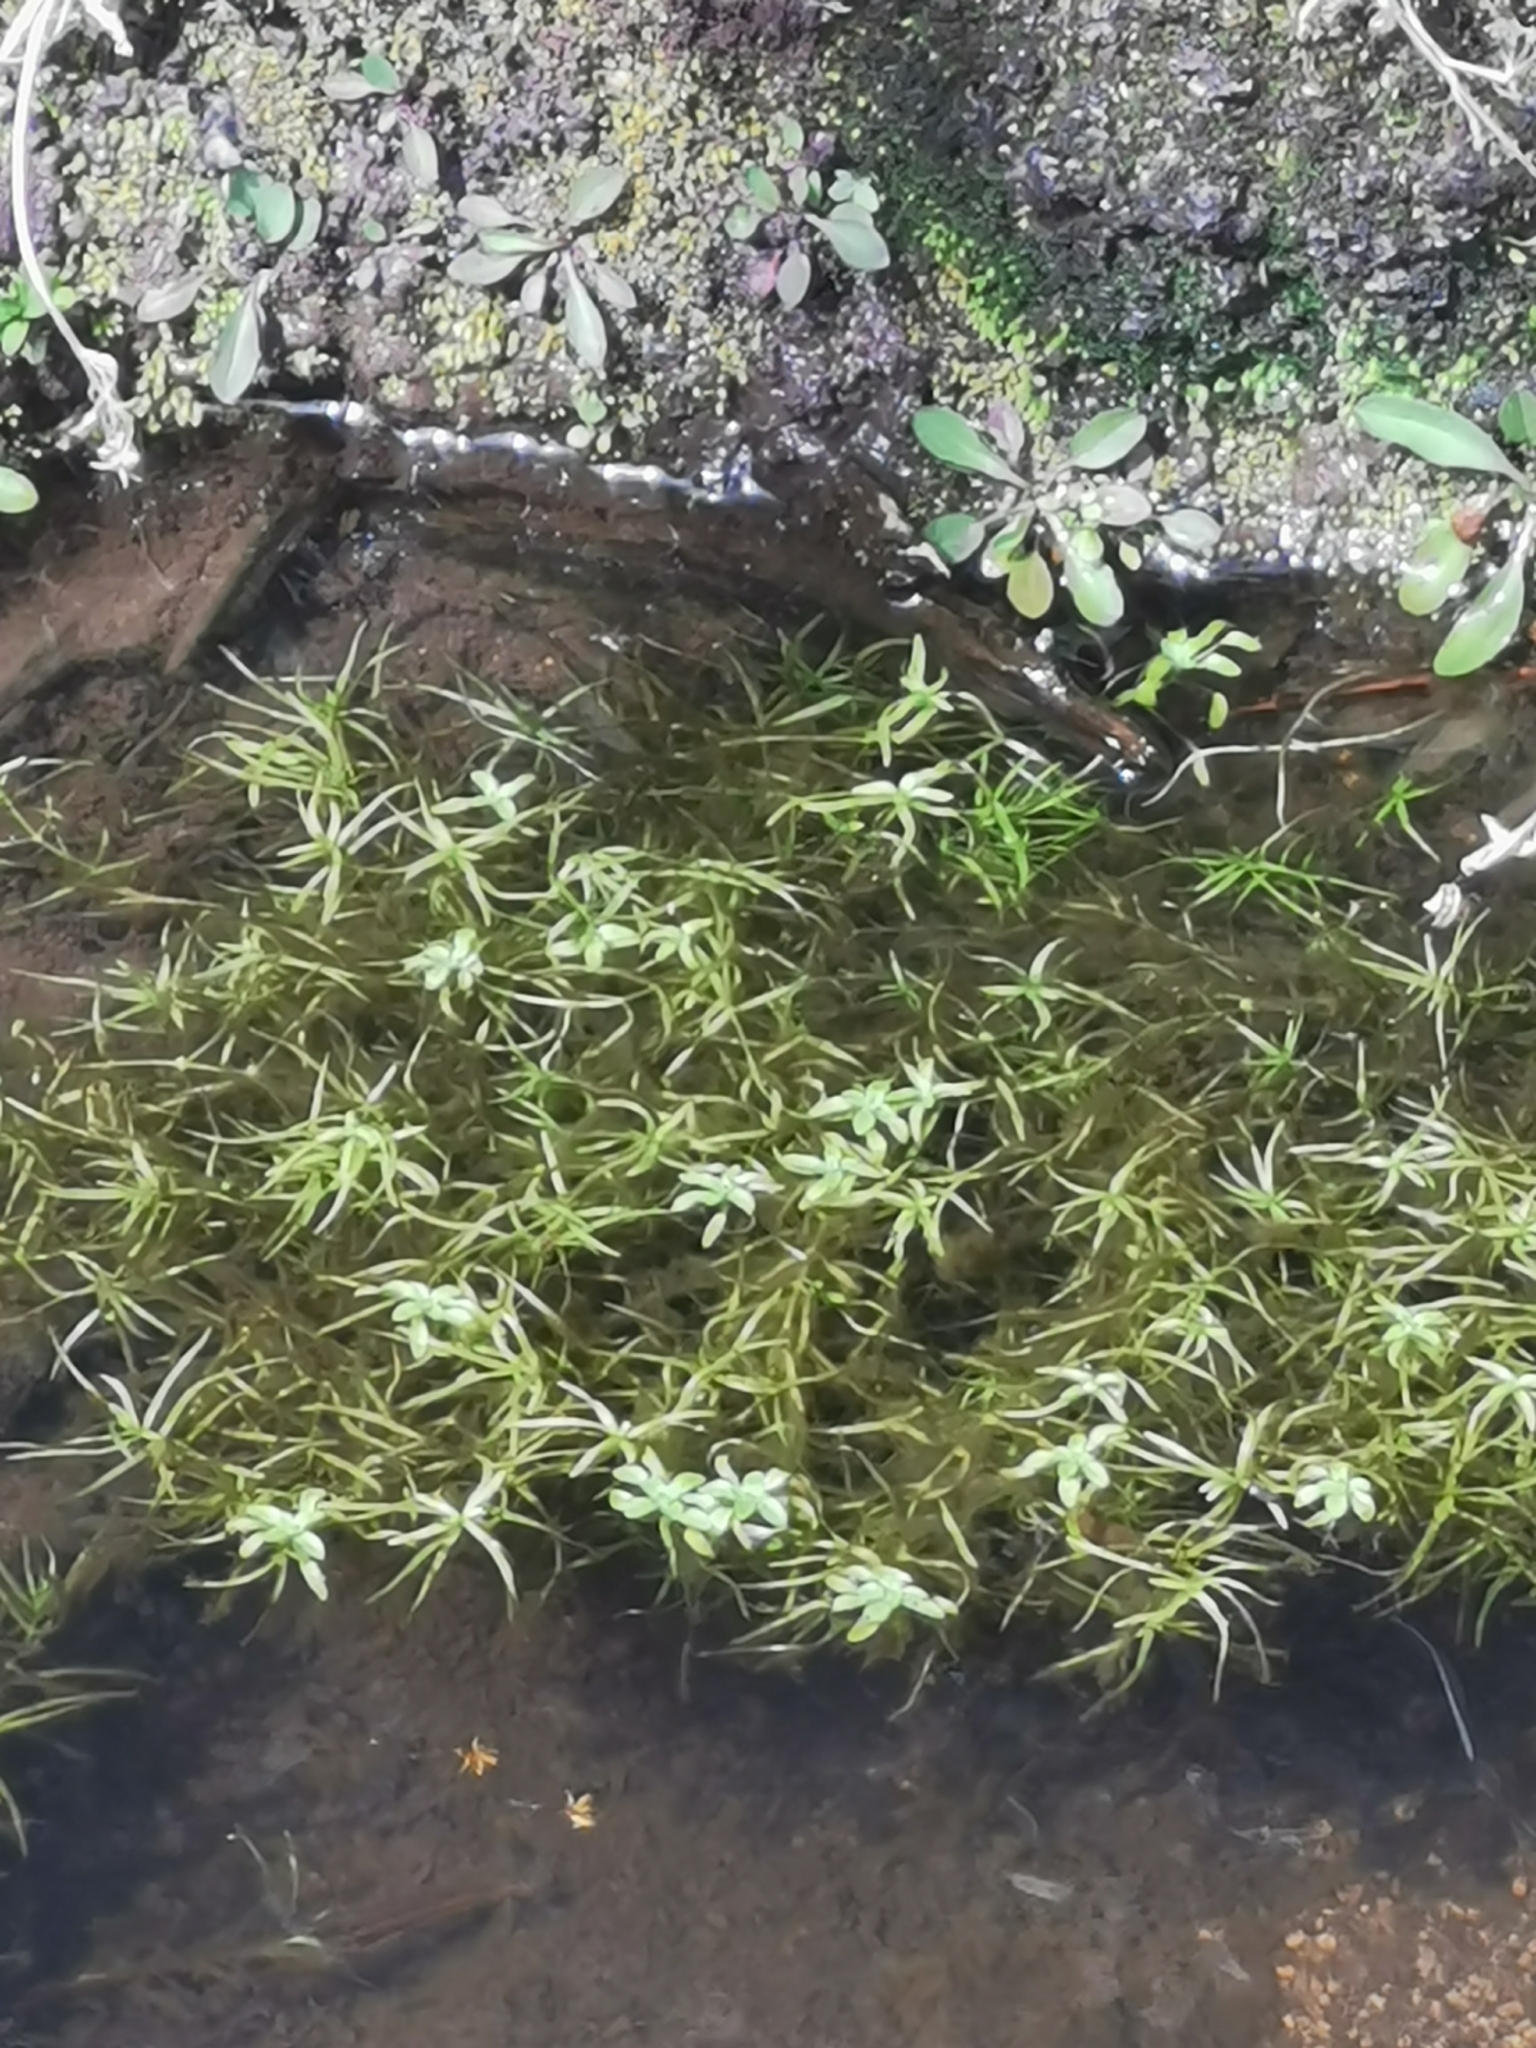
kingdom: Plantae
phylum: Tracheophyta
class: Magnoliopsida
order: Lamiales
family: Plantaginaceae
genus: Callitriche
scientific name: Callitriche heterophylla
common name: Two-headed water-starwort
